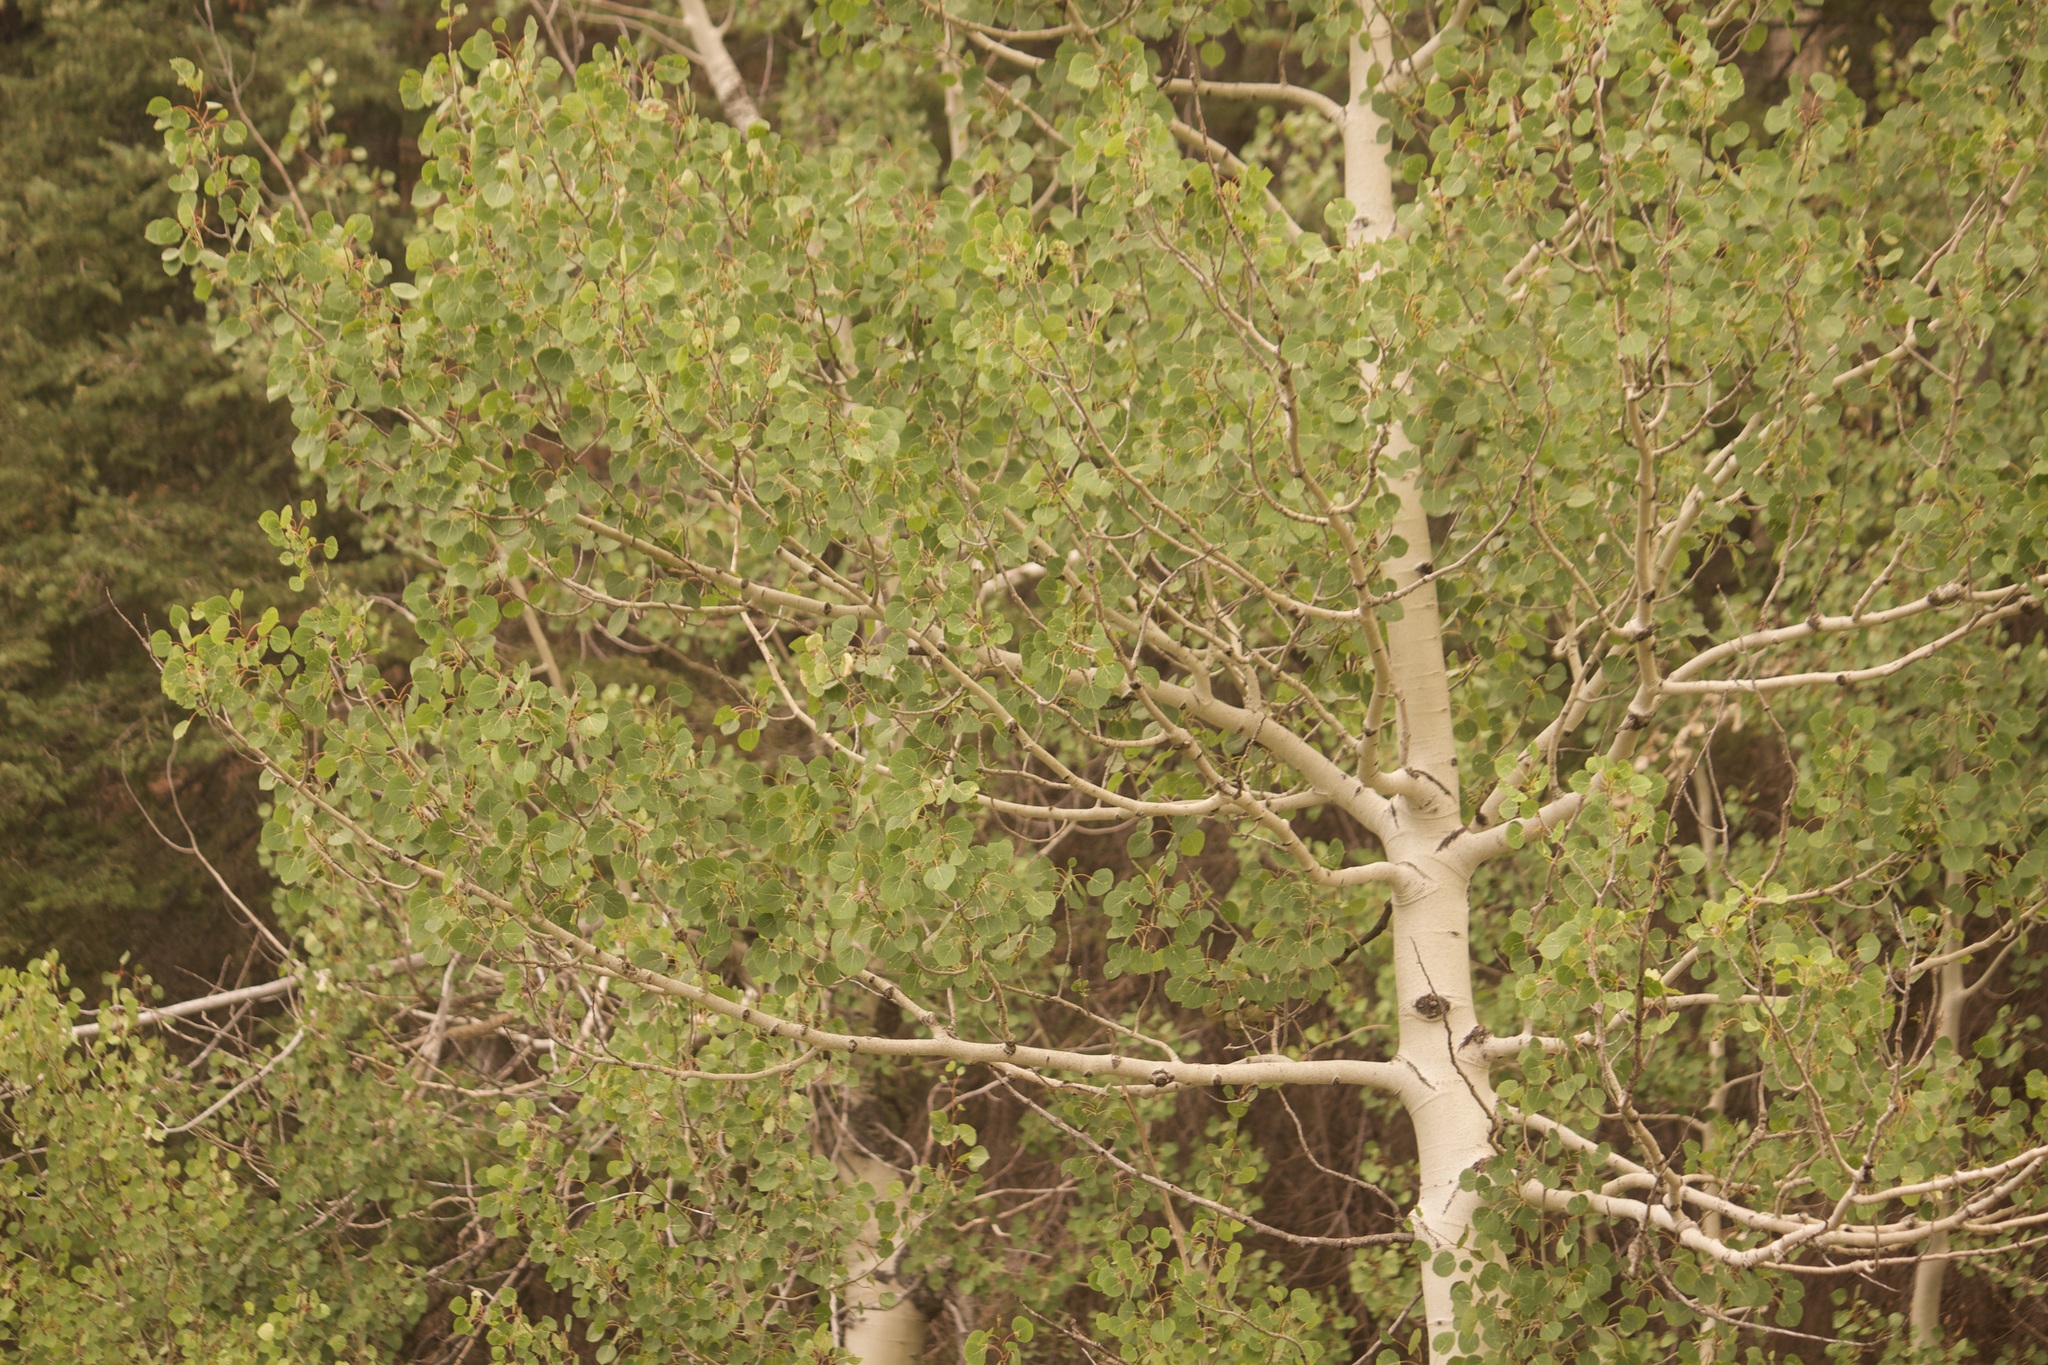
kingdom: Plantae
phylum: Tracheophyta
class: Magnoliopsida
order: Malpighiales
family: Salicaceae
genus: Populus
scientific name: Populus tremuloides
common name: Quaking aspen
